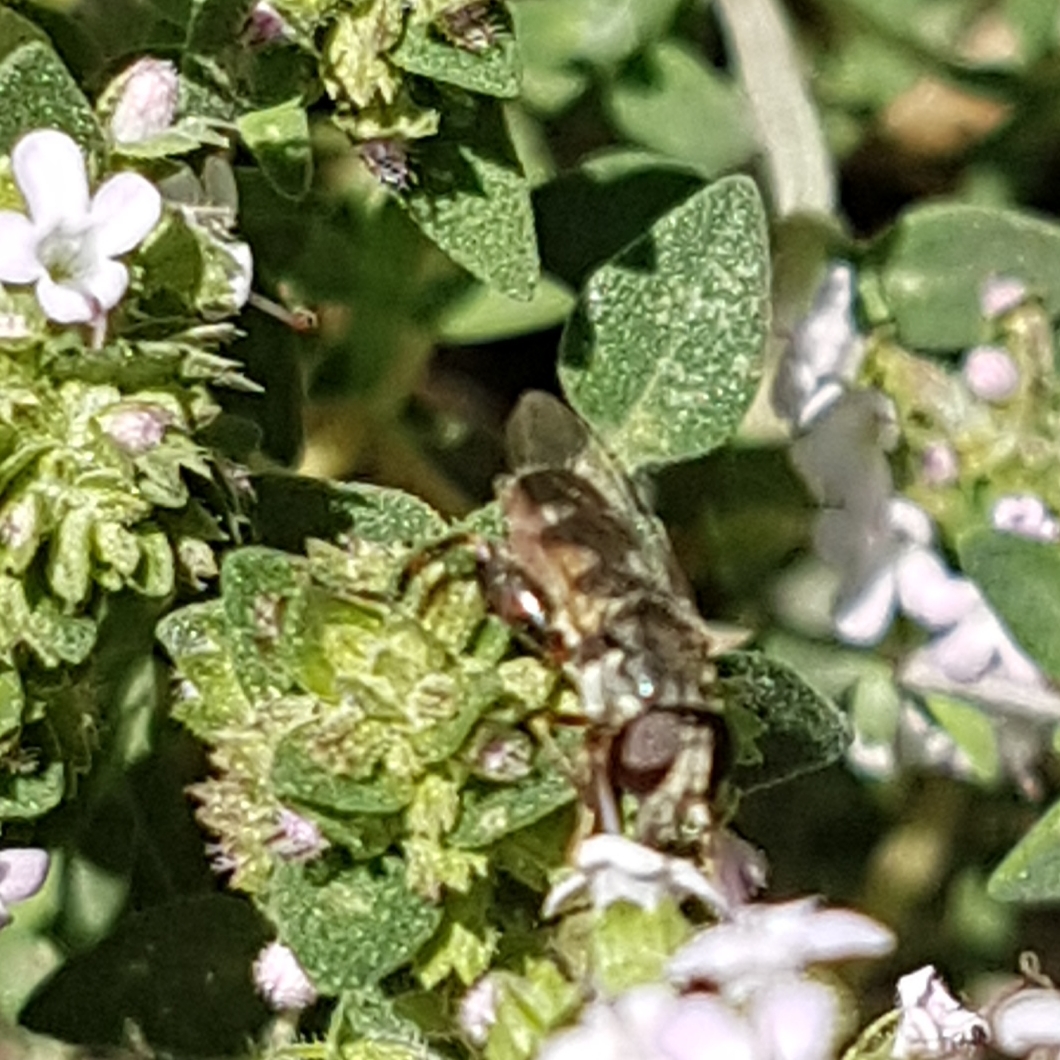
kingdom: Animalia
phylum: Arthropoda
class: Insecta
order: Diptera
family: Syrphidae
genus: Syritta
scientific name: Syritta pipiens
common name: Hover fly
